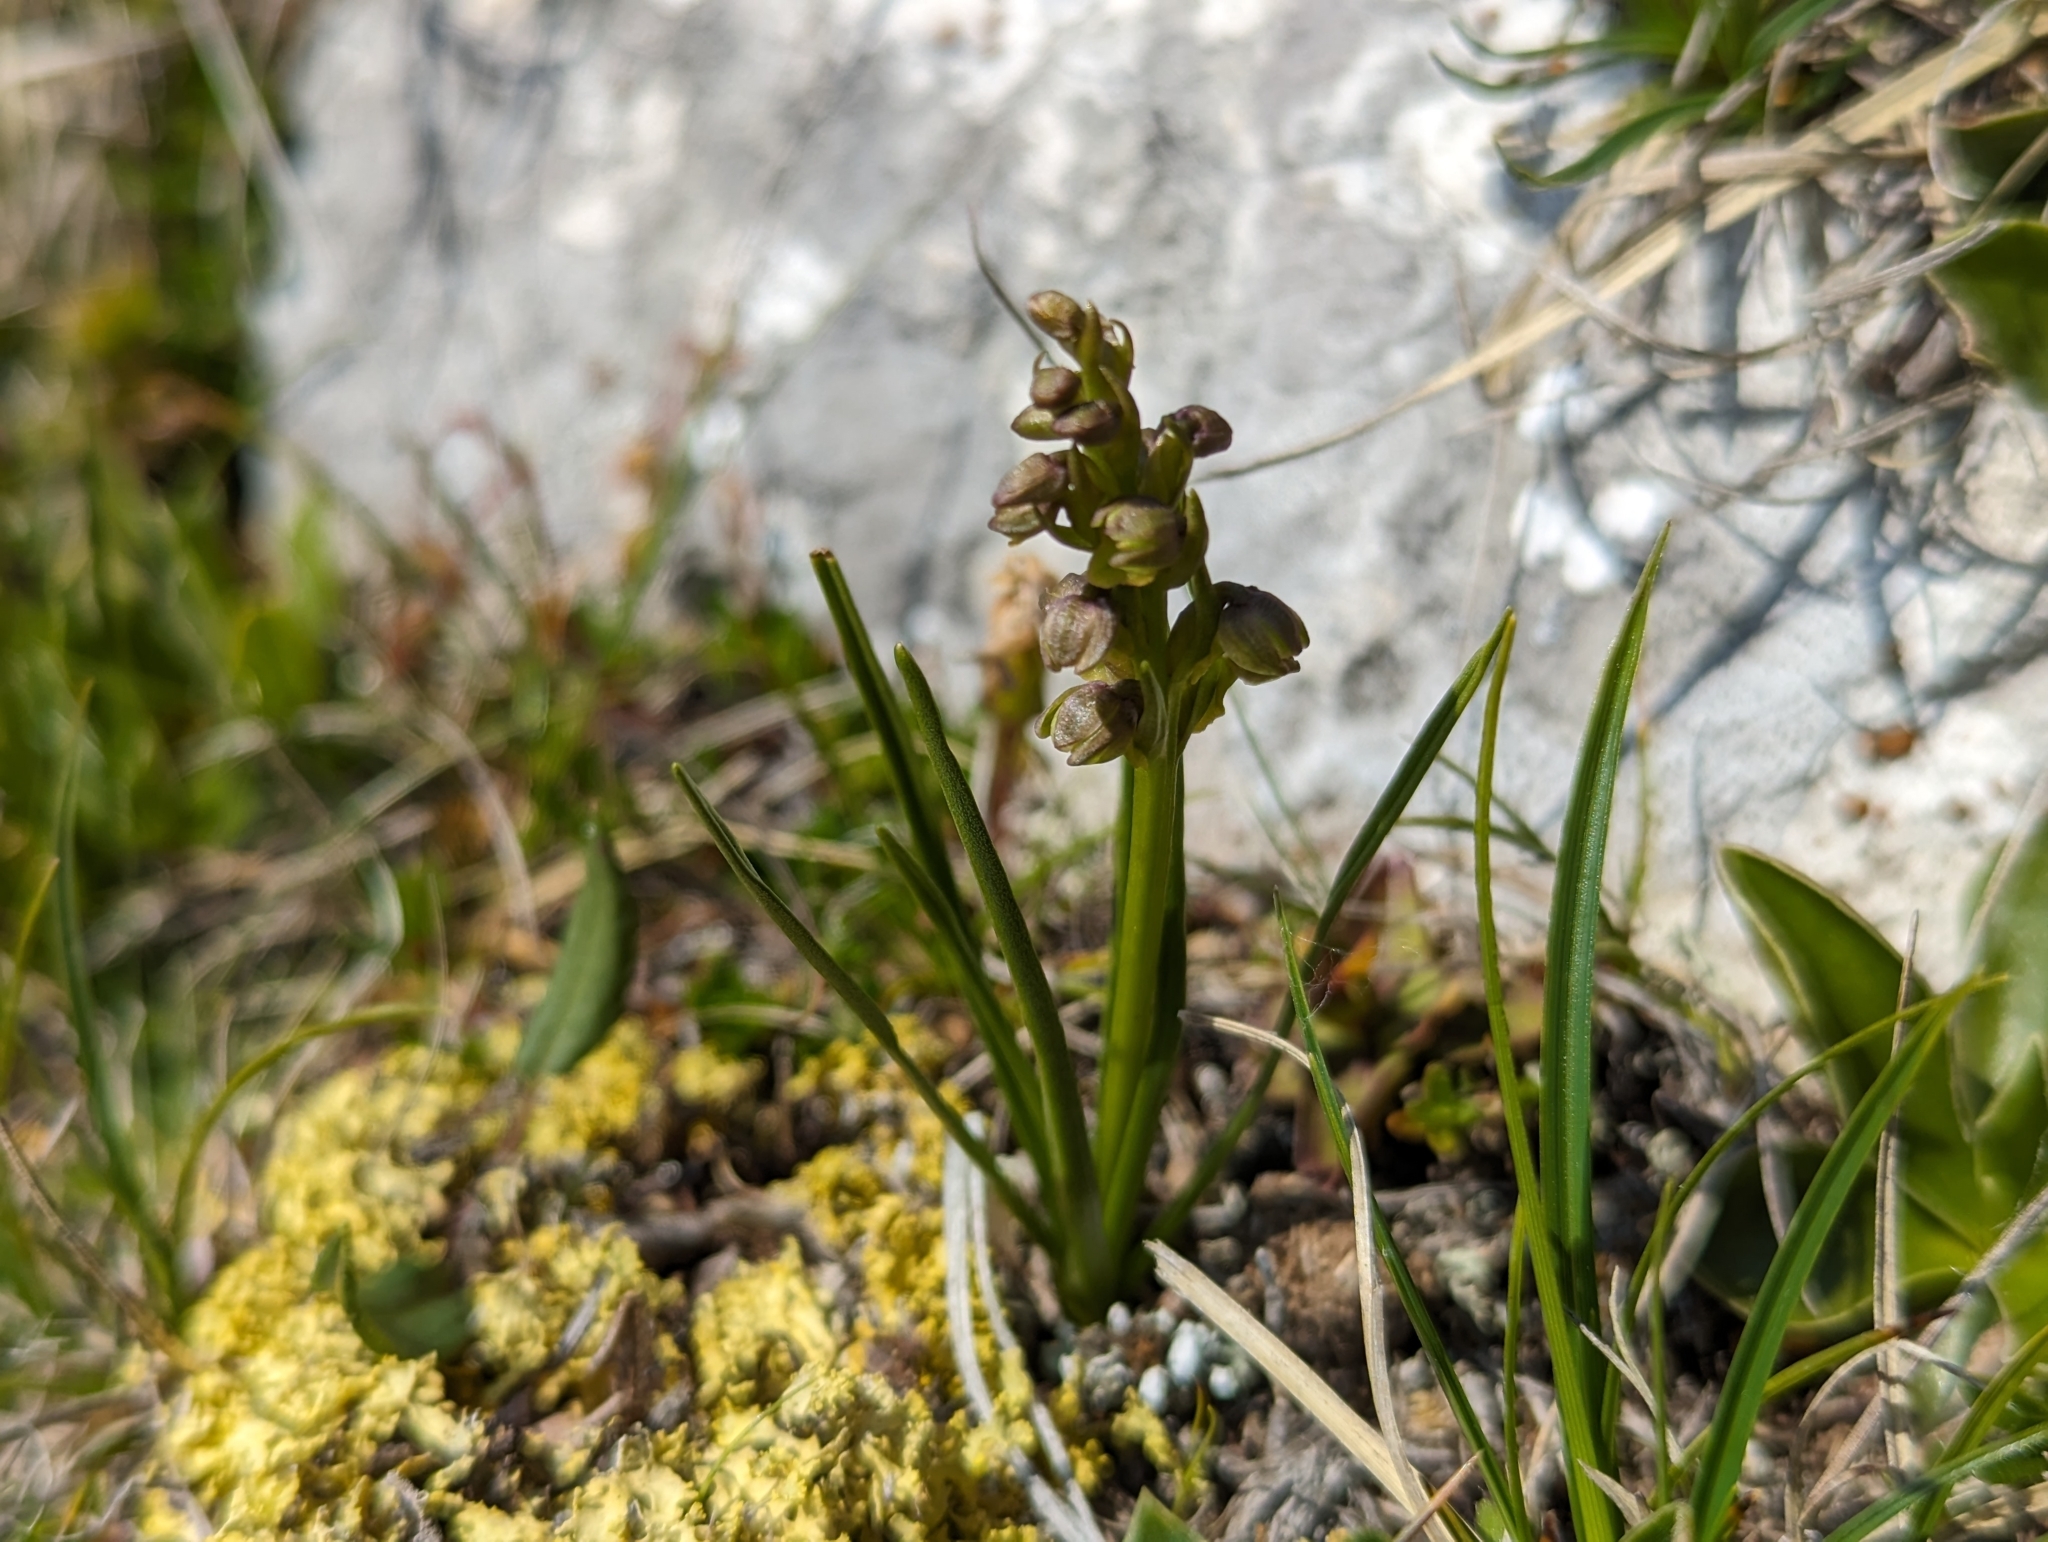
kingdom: Plantae
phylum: Tracheophyta
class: Liliopsida
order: Asparagales
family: Orchidaceae
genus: Chamorchis
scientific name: Chamorchis alpina
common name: Alpine chamorchis
